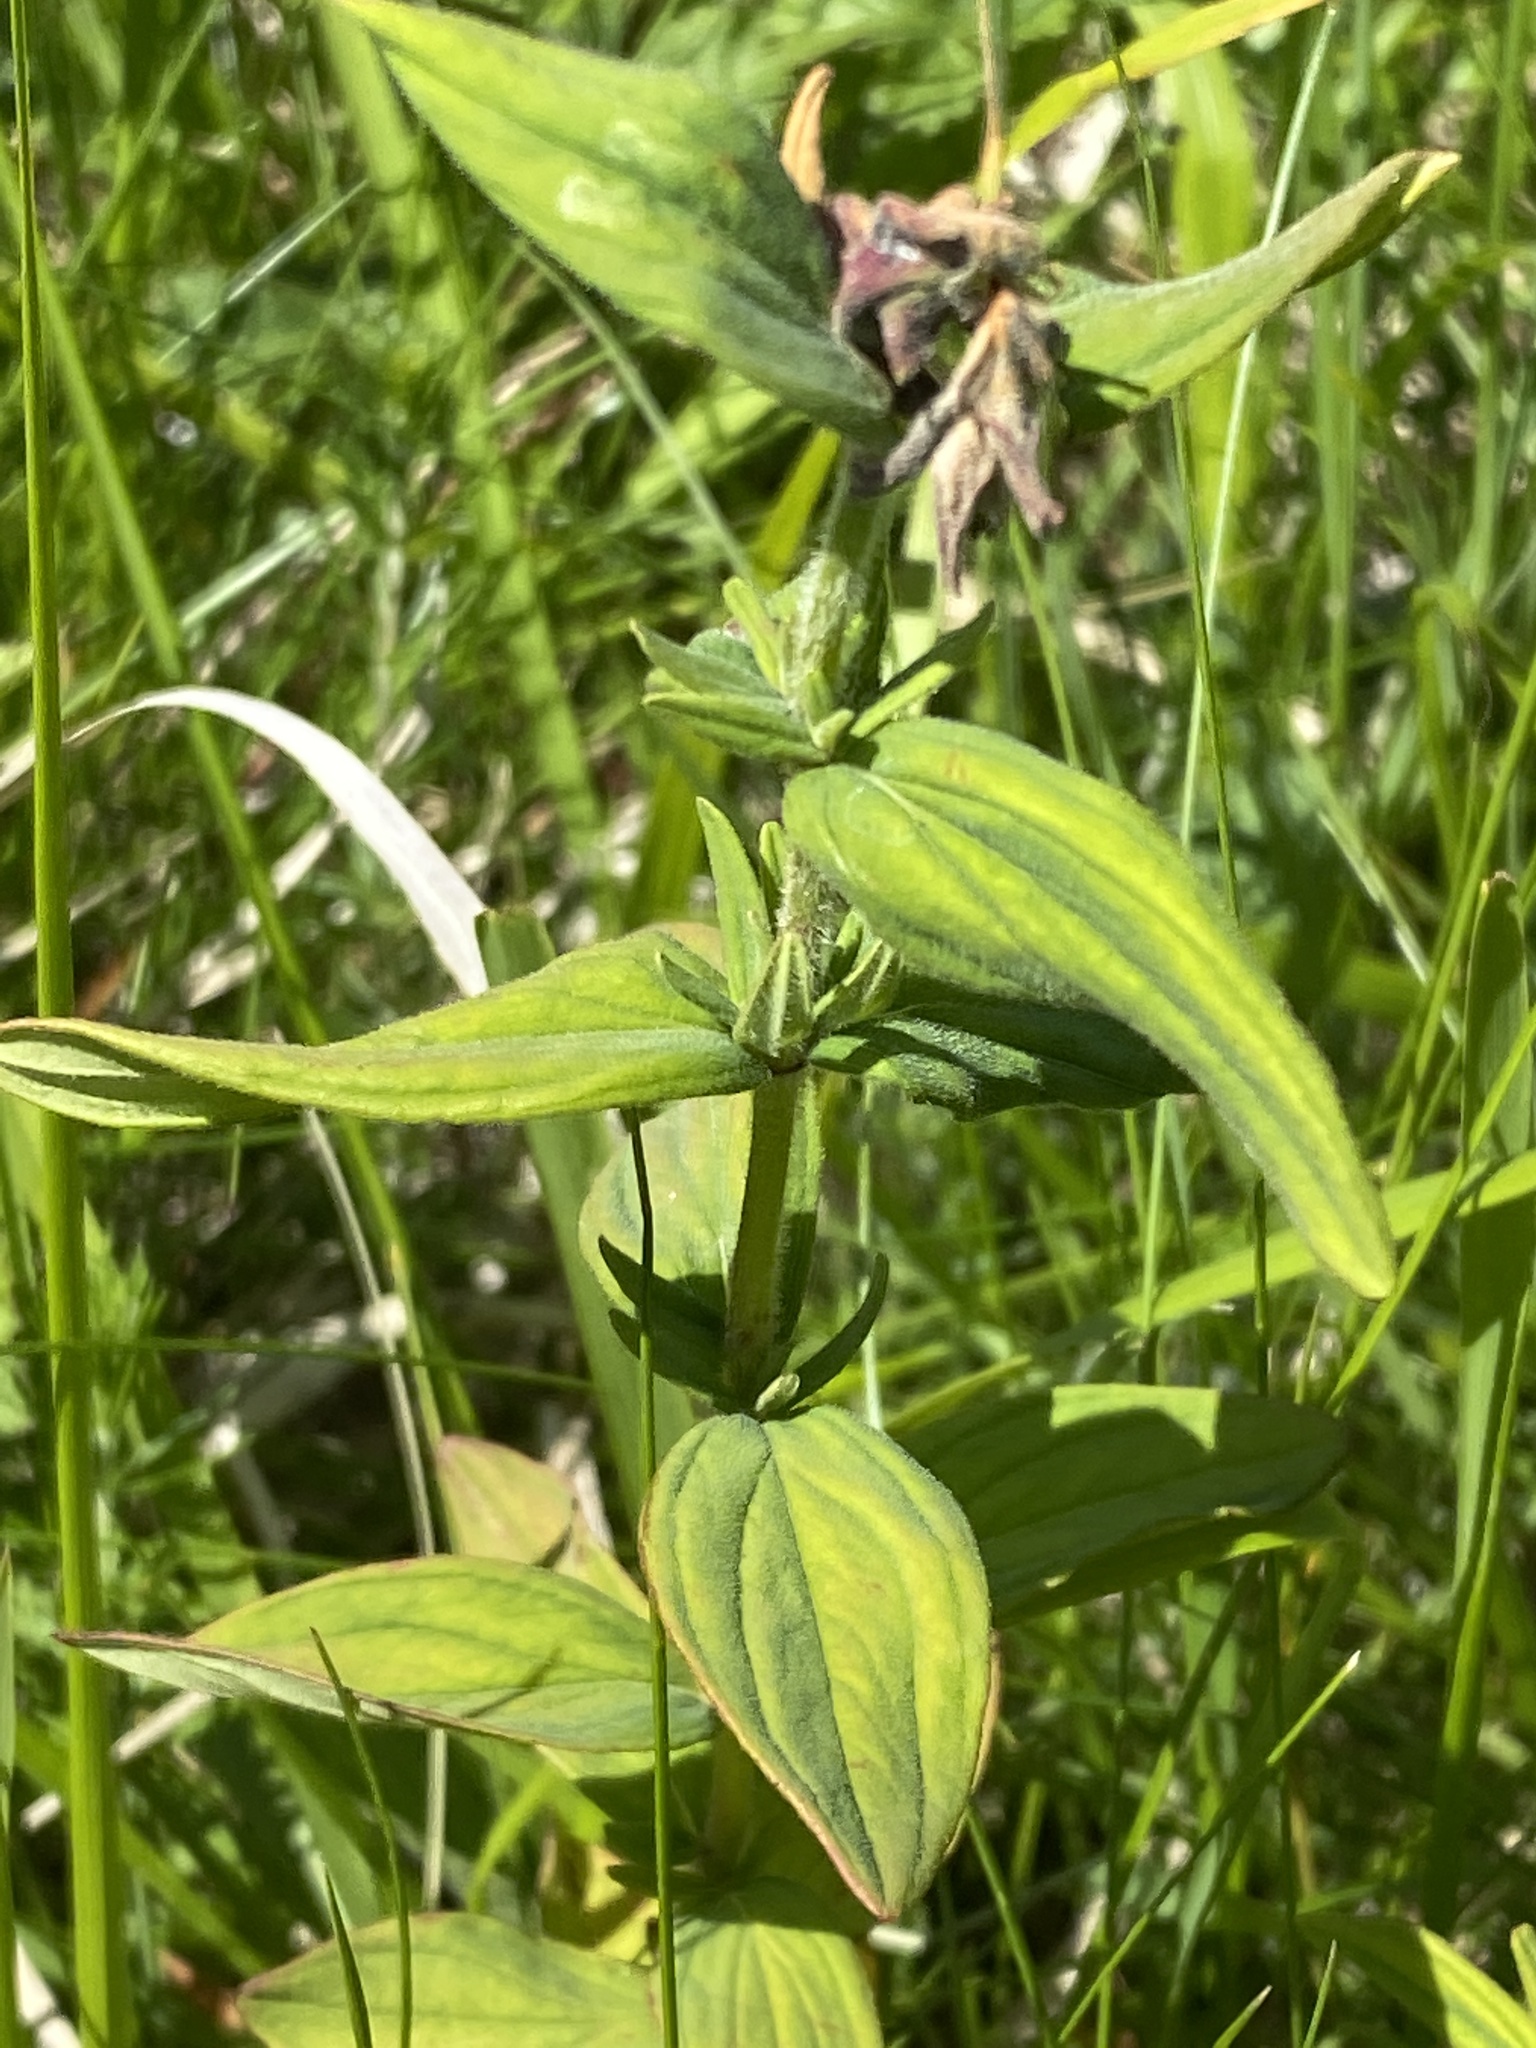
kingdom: Plantae
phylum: Tracheophyta
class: Magnoliopsida
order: Malpighiales
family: Hypericaceae
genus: Hypericum
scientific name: Hypericum hirsutum
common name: Hairy st. john's-wort
